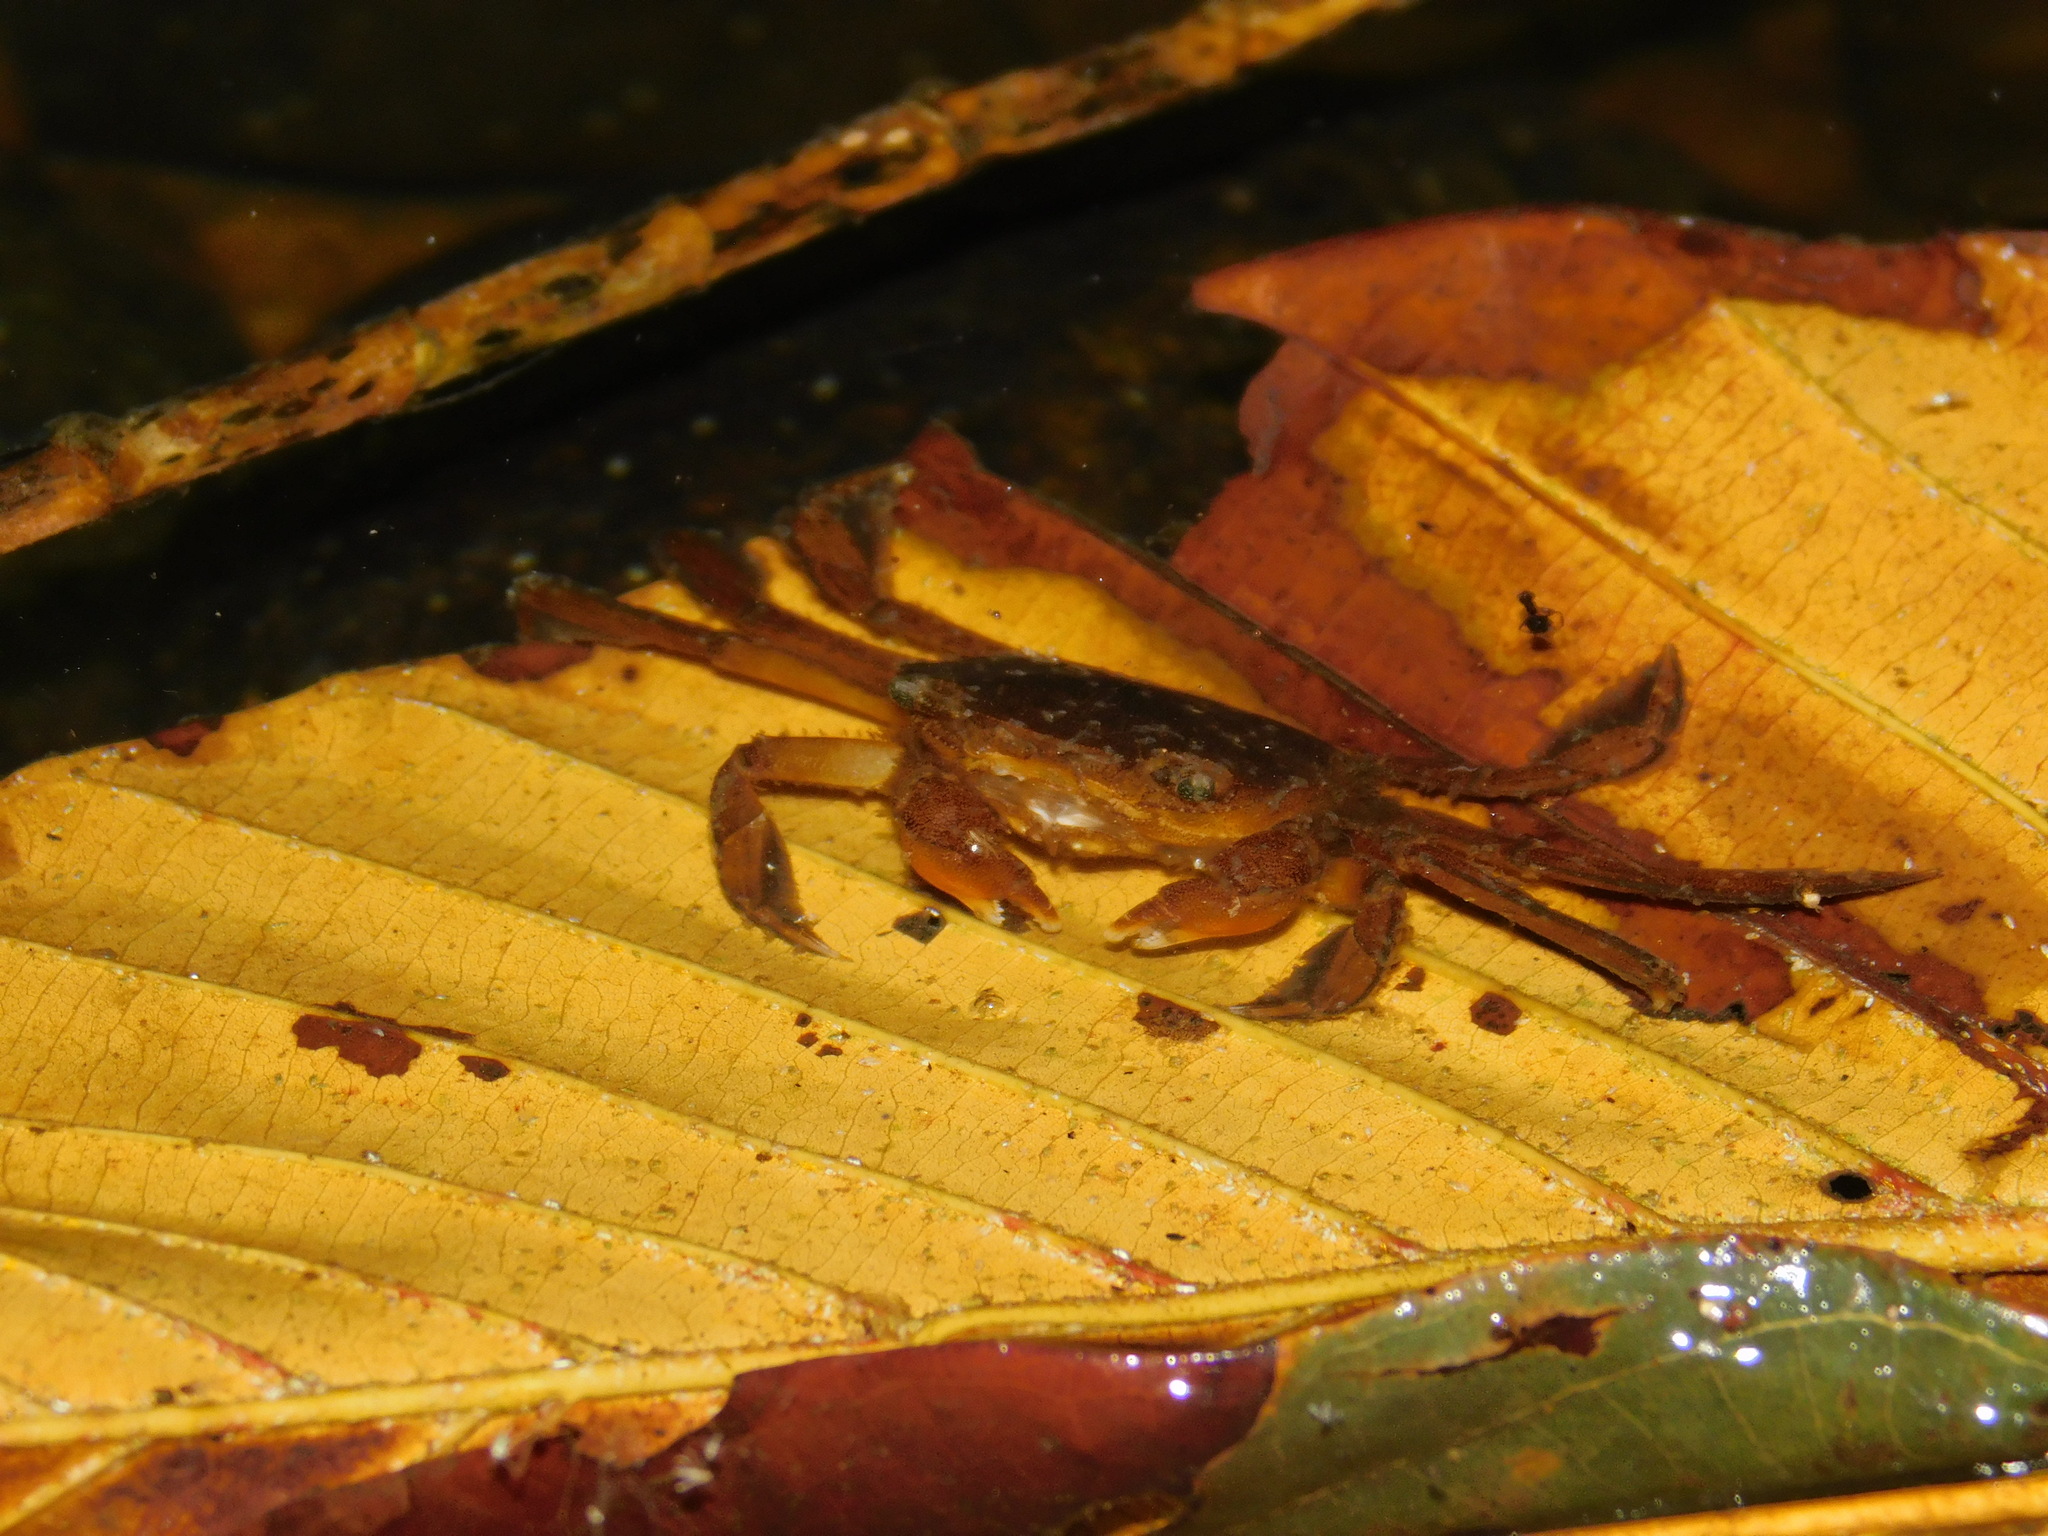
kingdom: Animalia
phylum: Arthropoda
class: Malacostraca
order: Decapoda
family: Varunidae
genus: Varuna
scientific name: Varuna litterata
